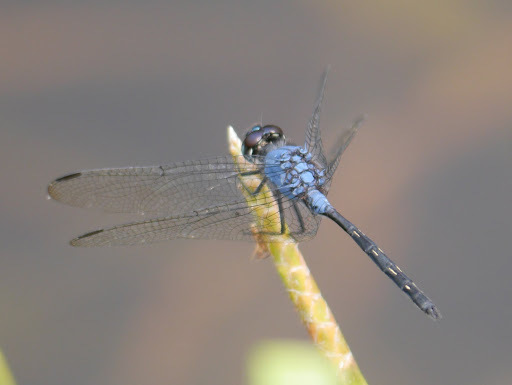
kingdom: Animalia
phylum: Arthropoda
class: Insecta
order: Odonata
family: Libellulidae
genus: Trithemis
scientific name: Trithemis stictica
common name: Jaunty dropwing
